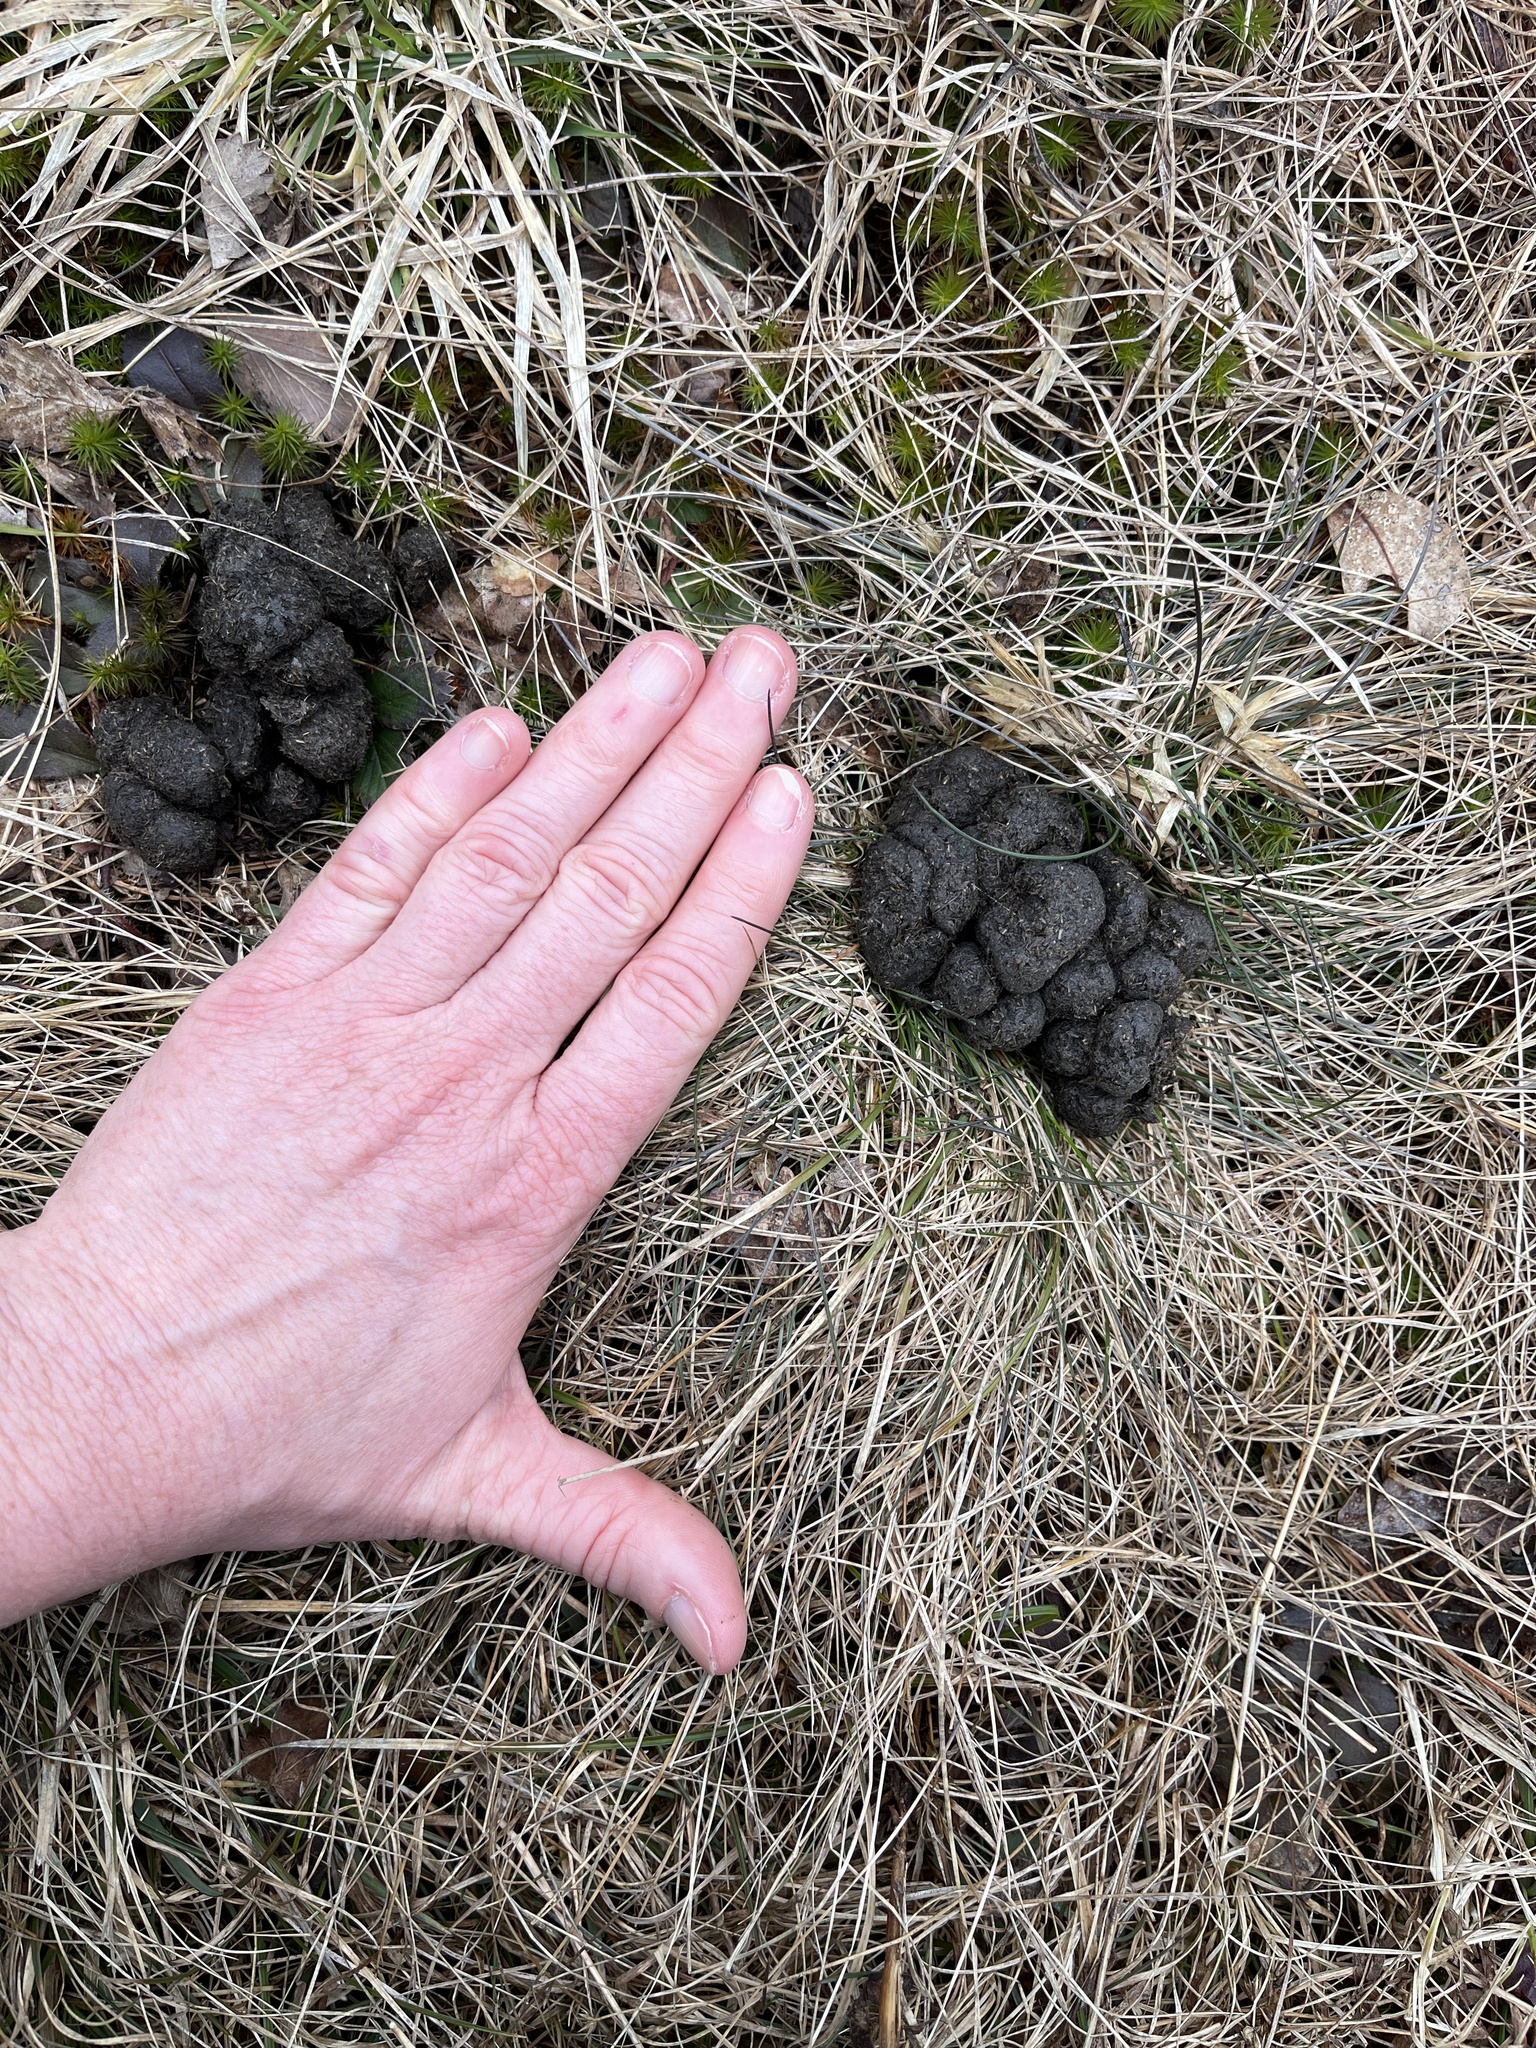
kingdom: Animalia
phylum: Chordata
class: Mammalia
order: Artiodactyla
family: Cervidae
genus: Alces
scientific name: Alces alces
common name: Moose
